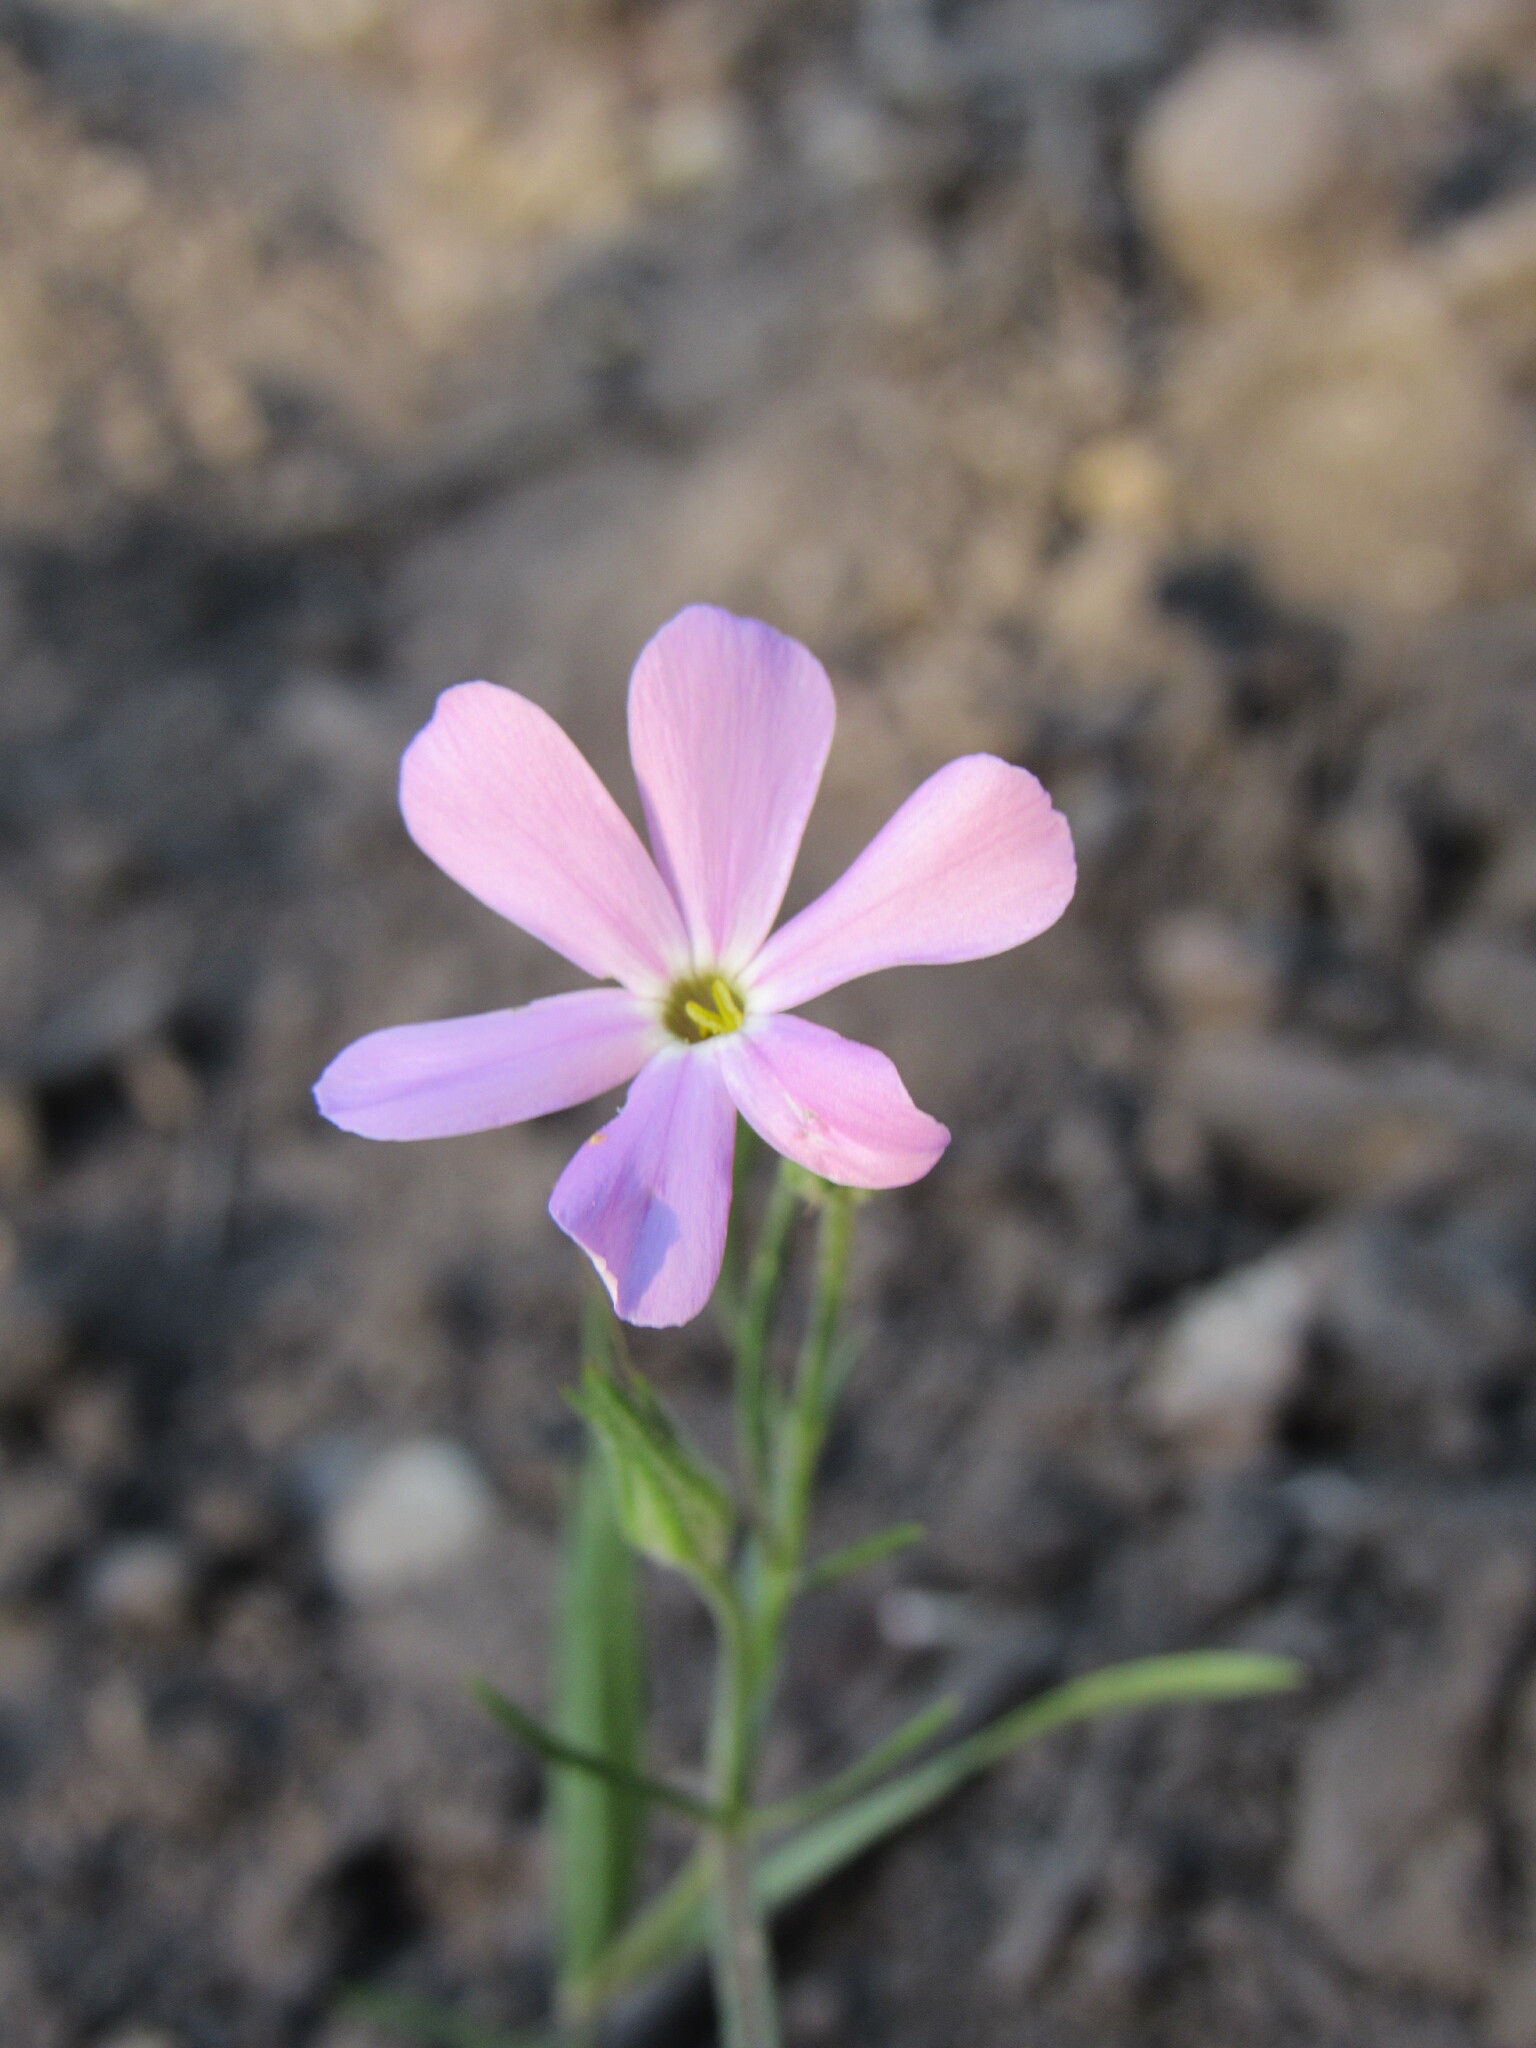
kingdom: Plantae
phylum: Tracheophyta
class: Magnoliopsida
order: Ericales
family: Polemoniaceae
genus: Phlox
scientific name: Phlox longifolia
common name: Longleaf phlox
